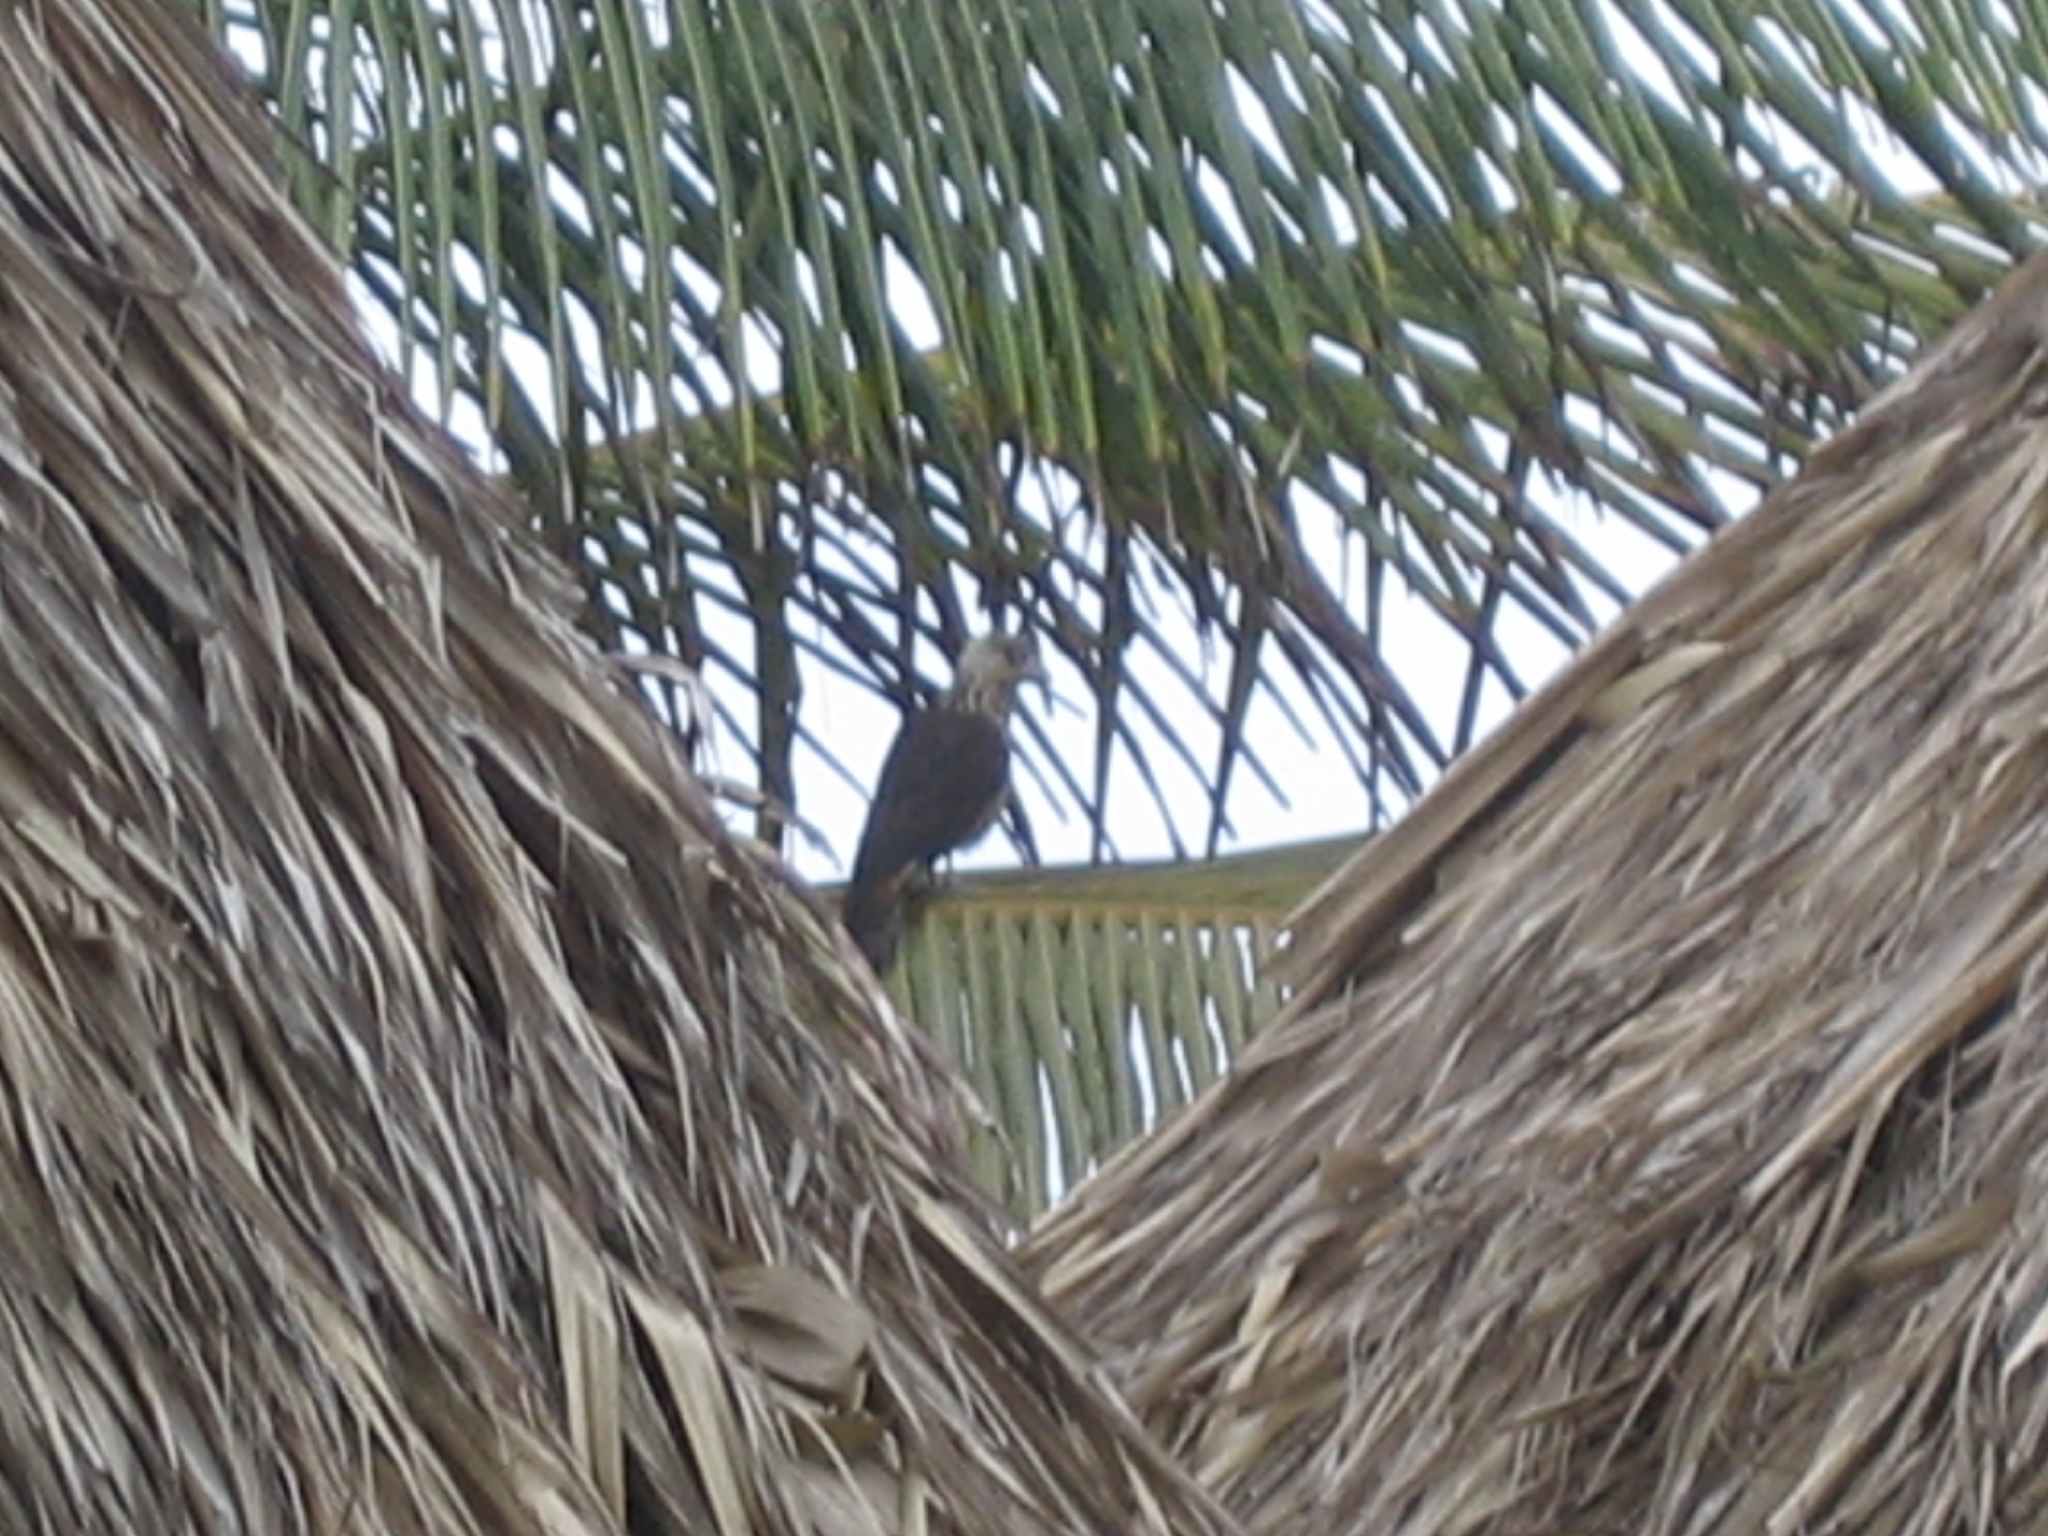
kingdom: Animalia
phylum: Chordata
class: Aves
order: Falconiformes
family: Falconidae
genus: Daptrius
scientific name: Daptrius
